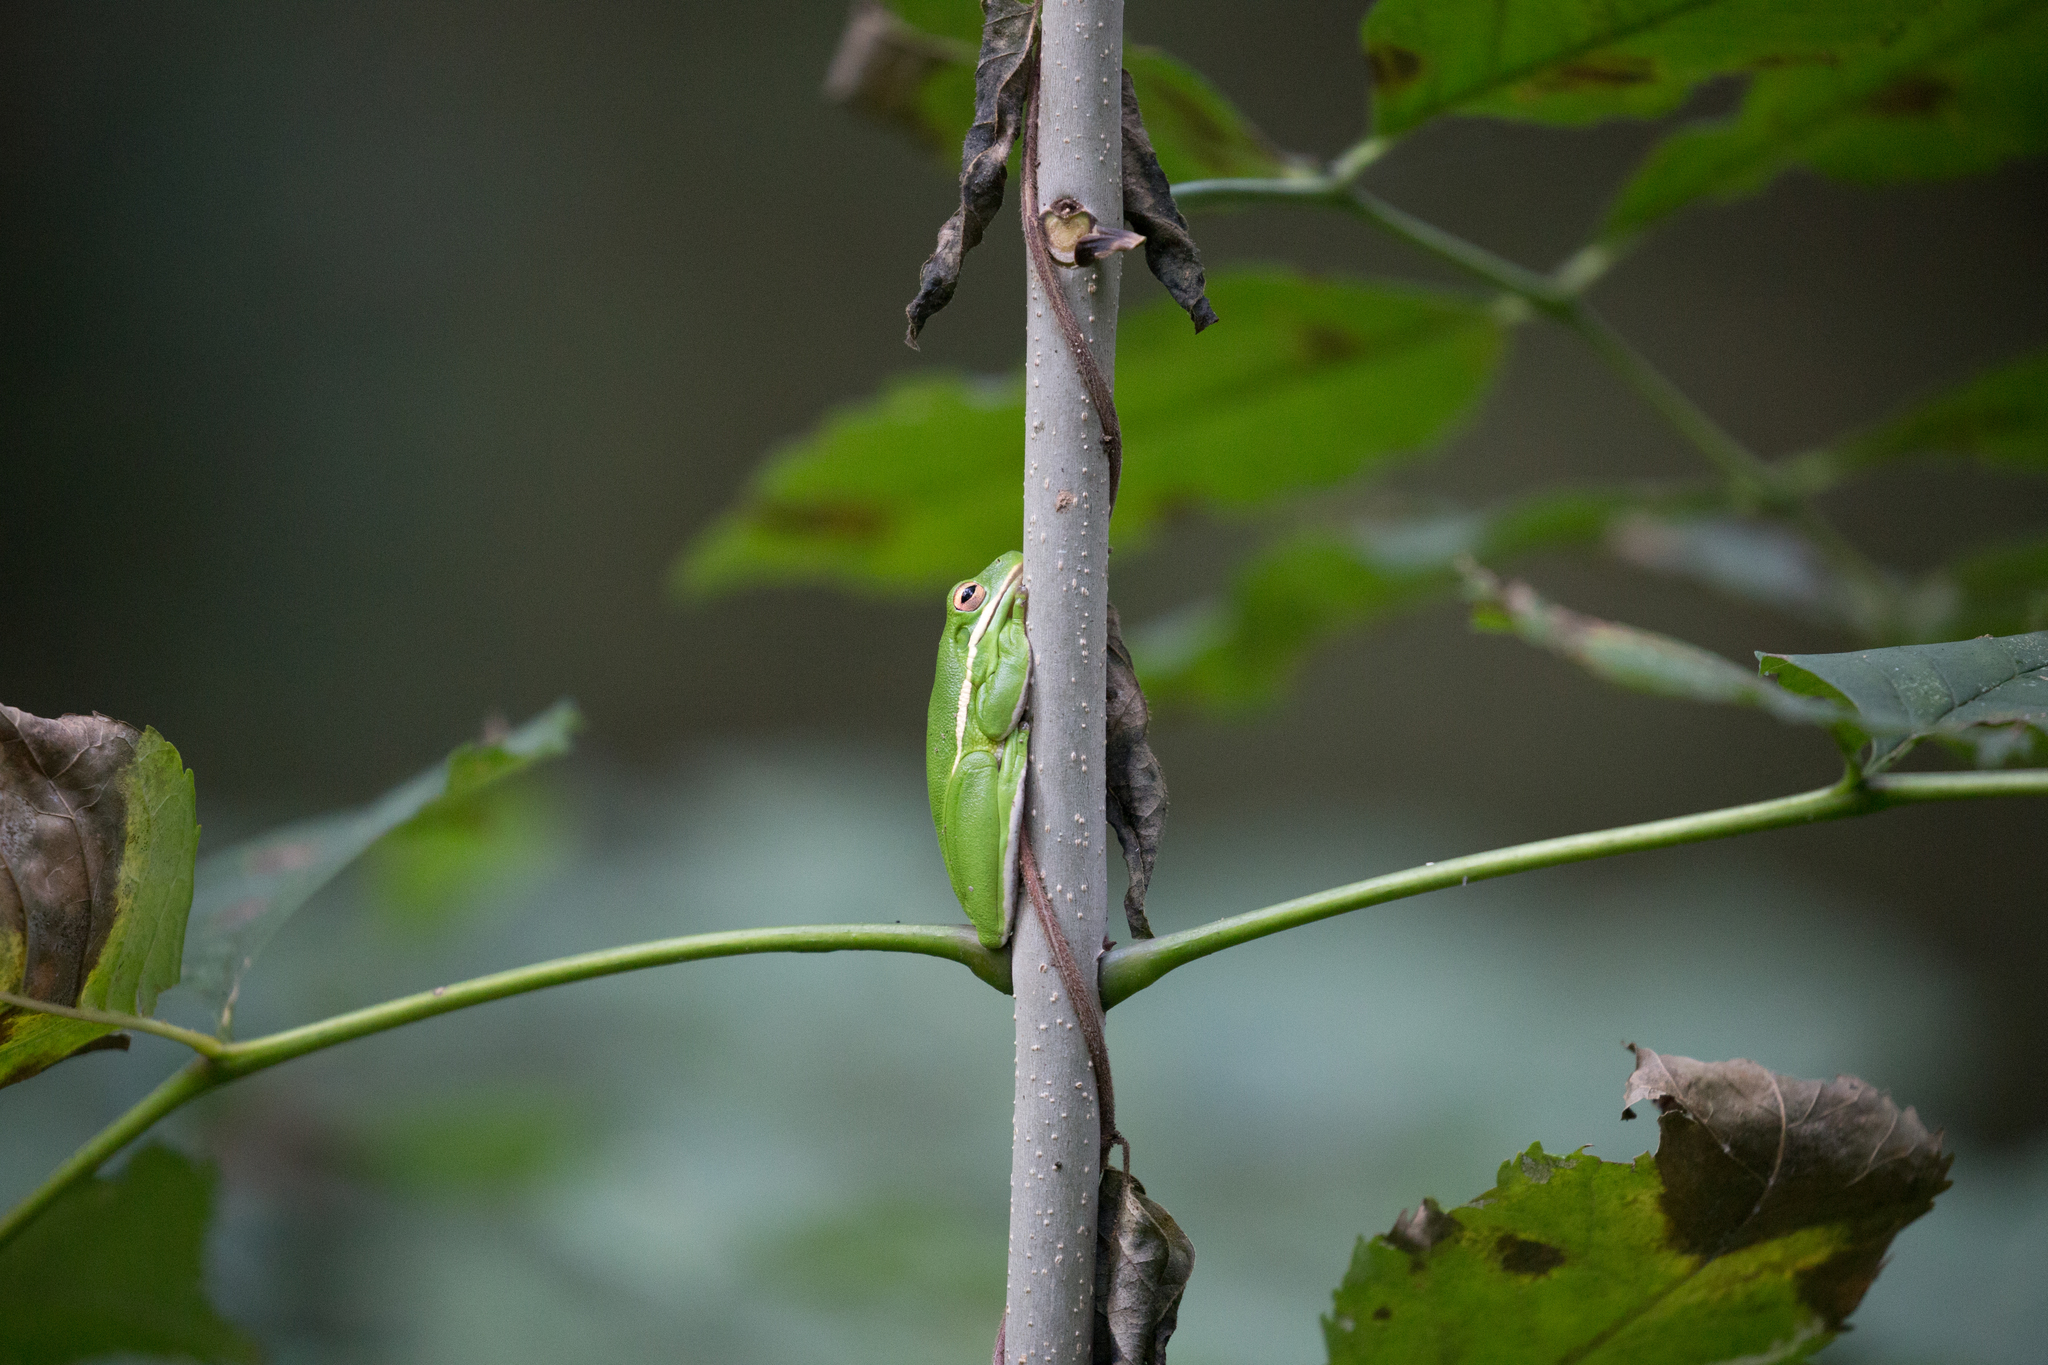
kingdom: Animalia
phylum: Chordata
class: Amphibia
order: Anura
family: Hylidae
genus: Dryophytes
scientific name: Dryophytes cinereus
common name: Green treefrog
